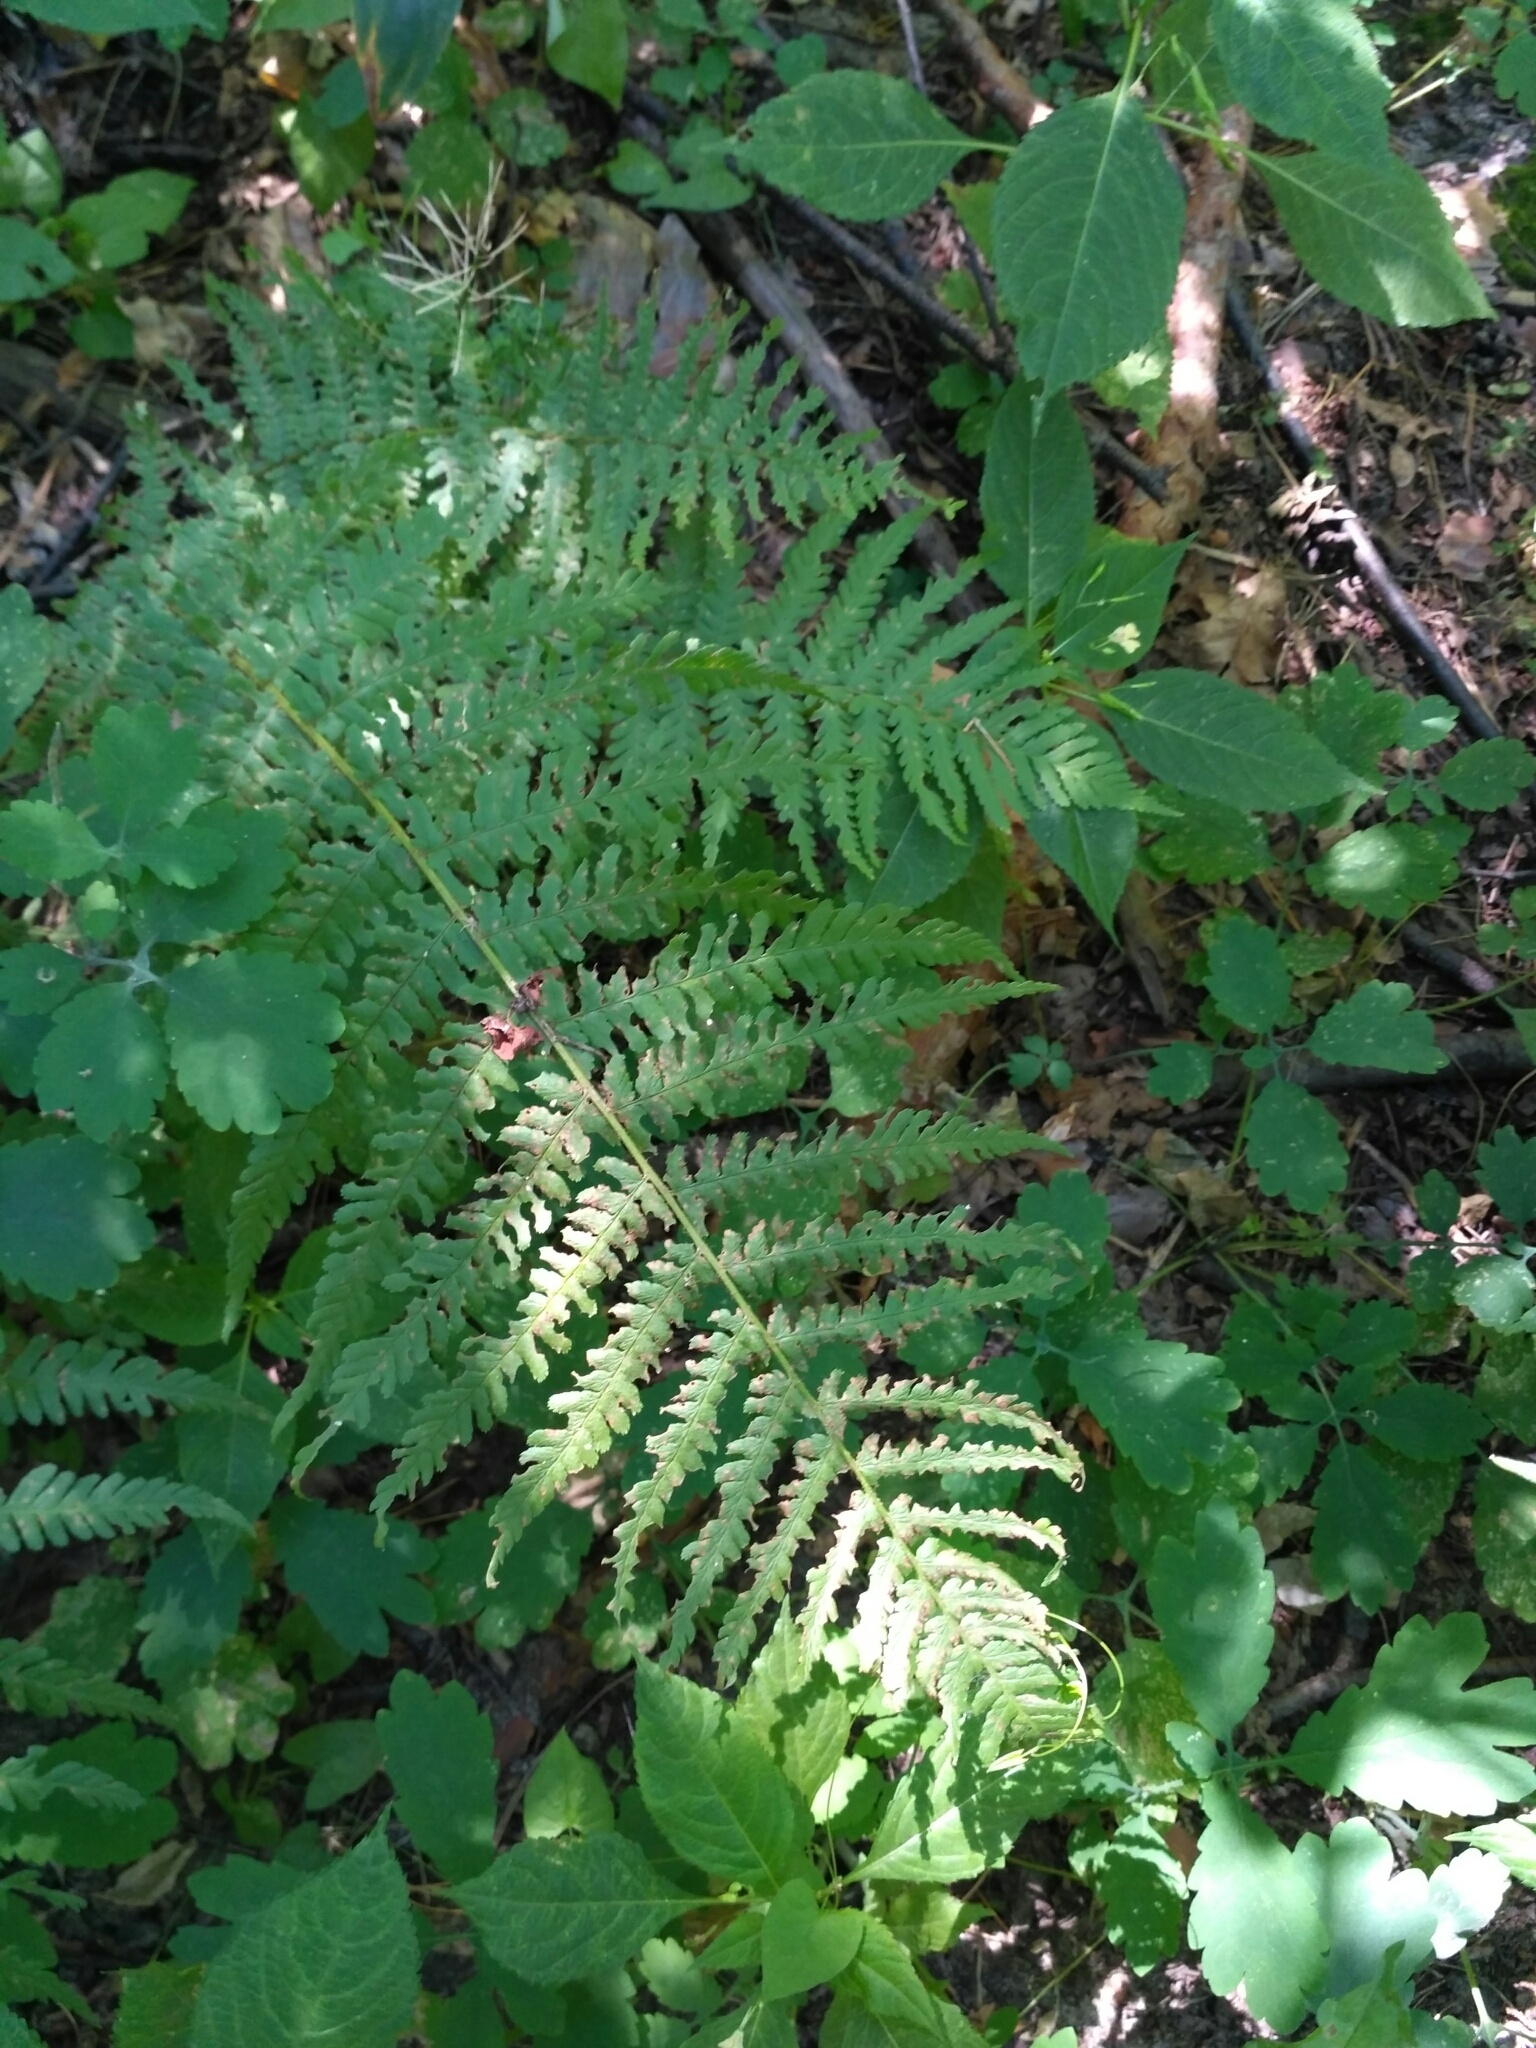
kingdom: Plantae
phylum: Tracheophyta
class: Polypodiopsida
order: Polypodiales
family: Dryopteridaceae
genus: Dryopteris
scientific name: Dryopteris filix-mas
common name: Male fern
